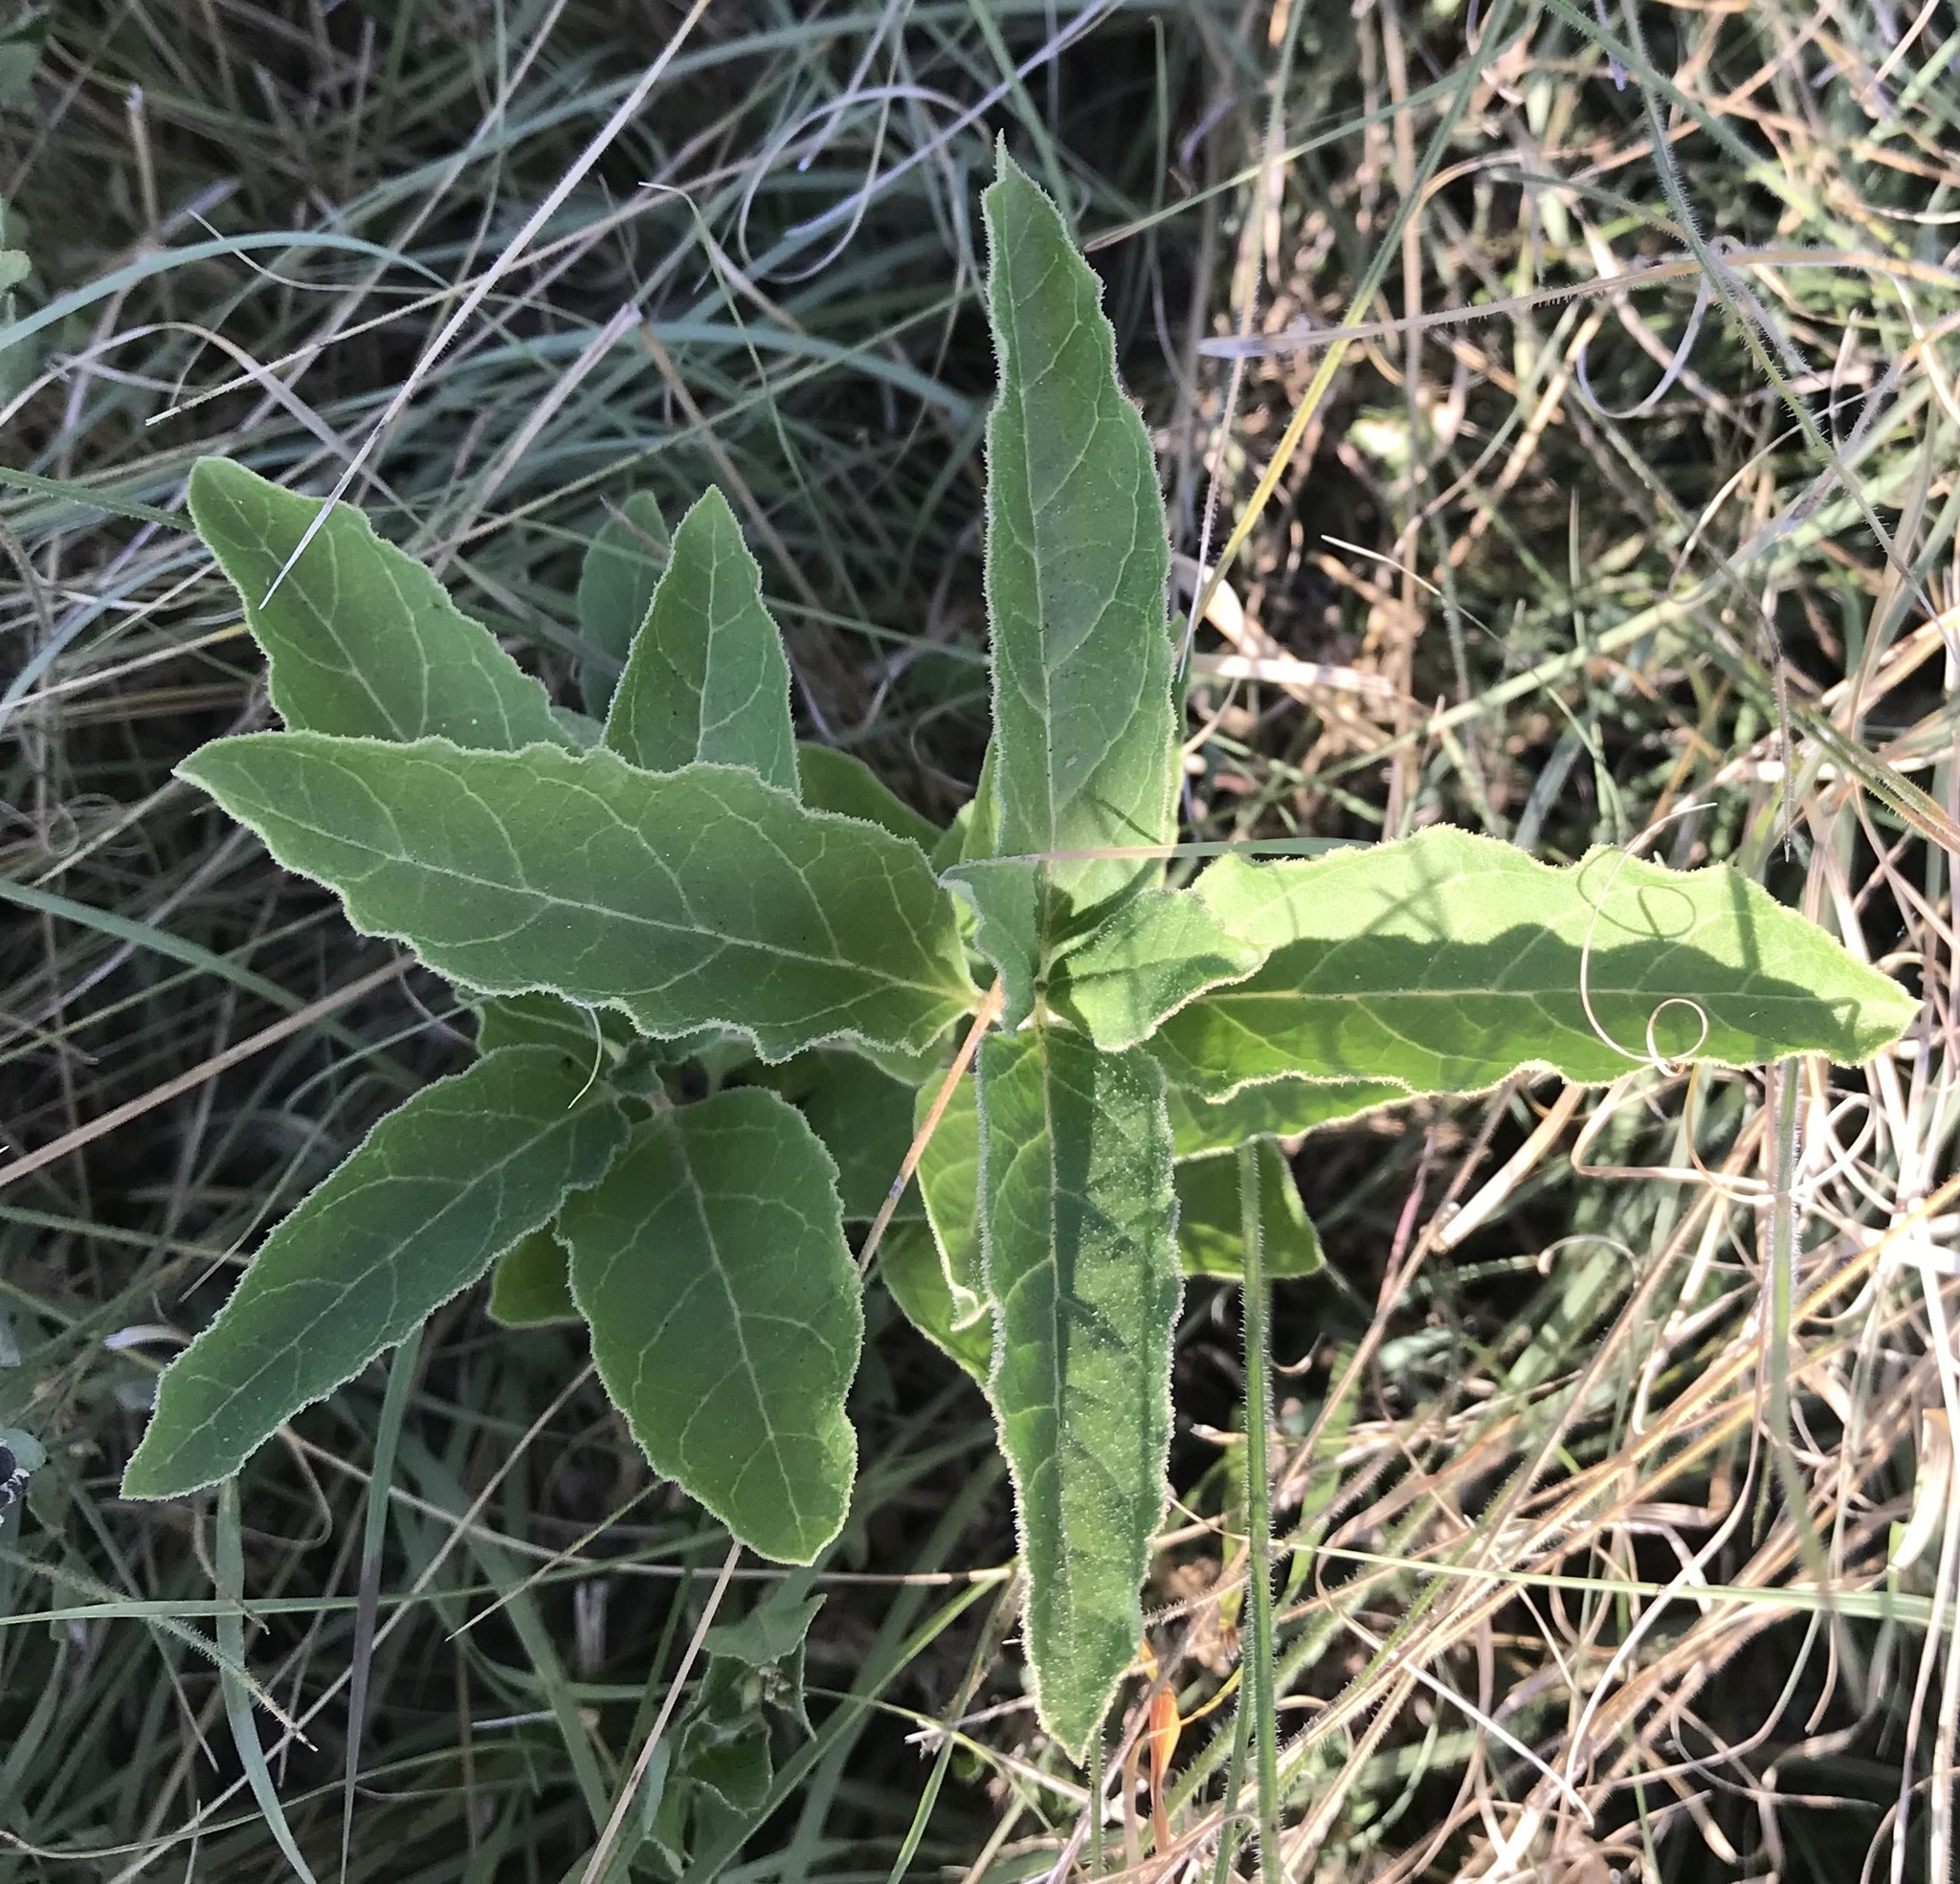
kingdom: Plantae
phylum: Tracheophyta
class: Magnoliopsida
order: Gentianales
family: Apocynaceae
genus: Asclepias
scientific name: Asclepias oenotheroides
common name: Zizotes milkweed
